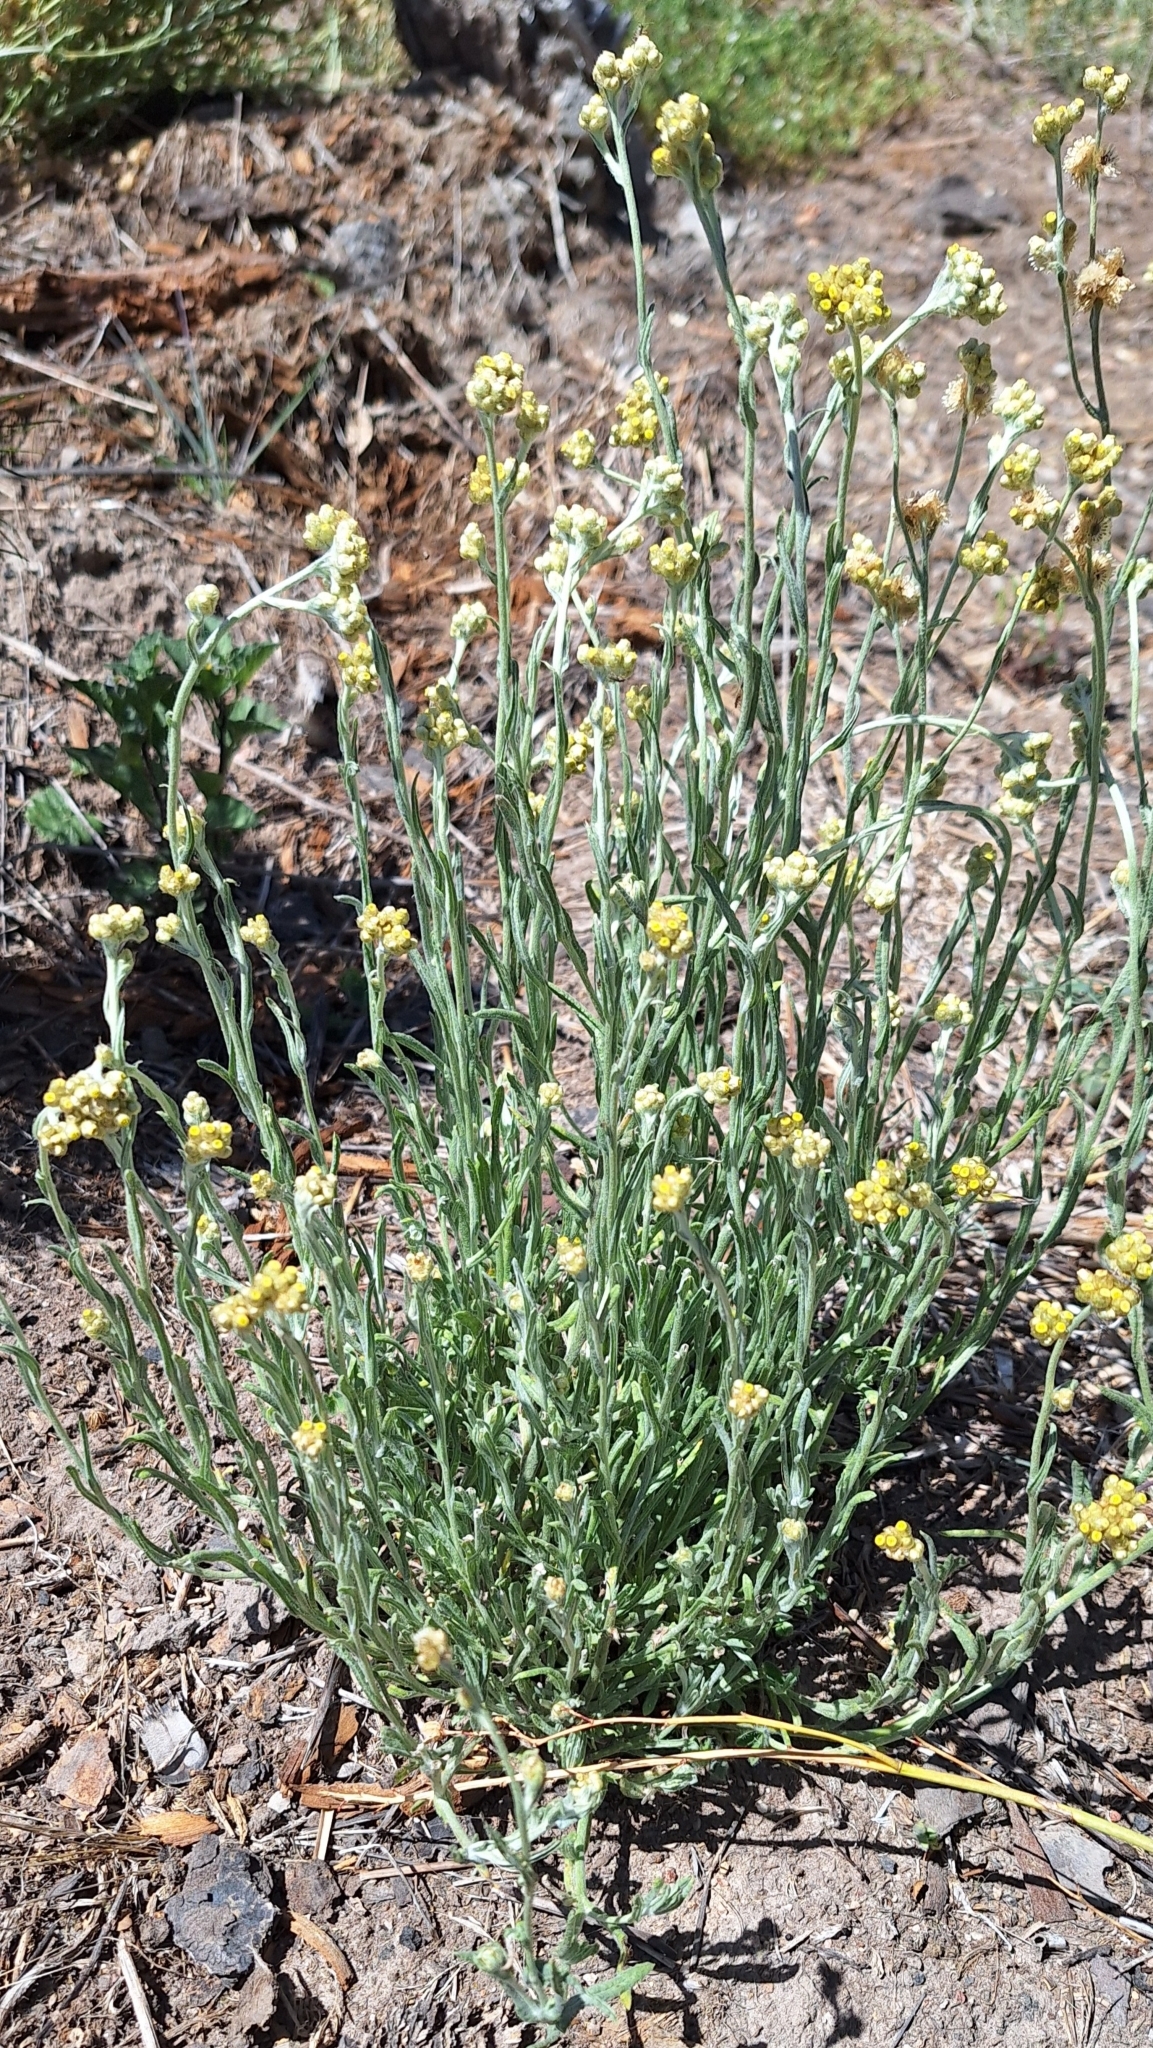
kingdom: Plantae
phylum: Tracheophyta
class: Magnoliopsida
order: Asterales
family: Asteraceae
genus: Helichrysum
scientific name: Helichrysum luteoalbum
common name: Daisy
